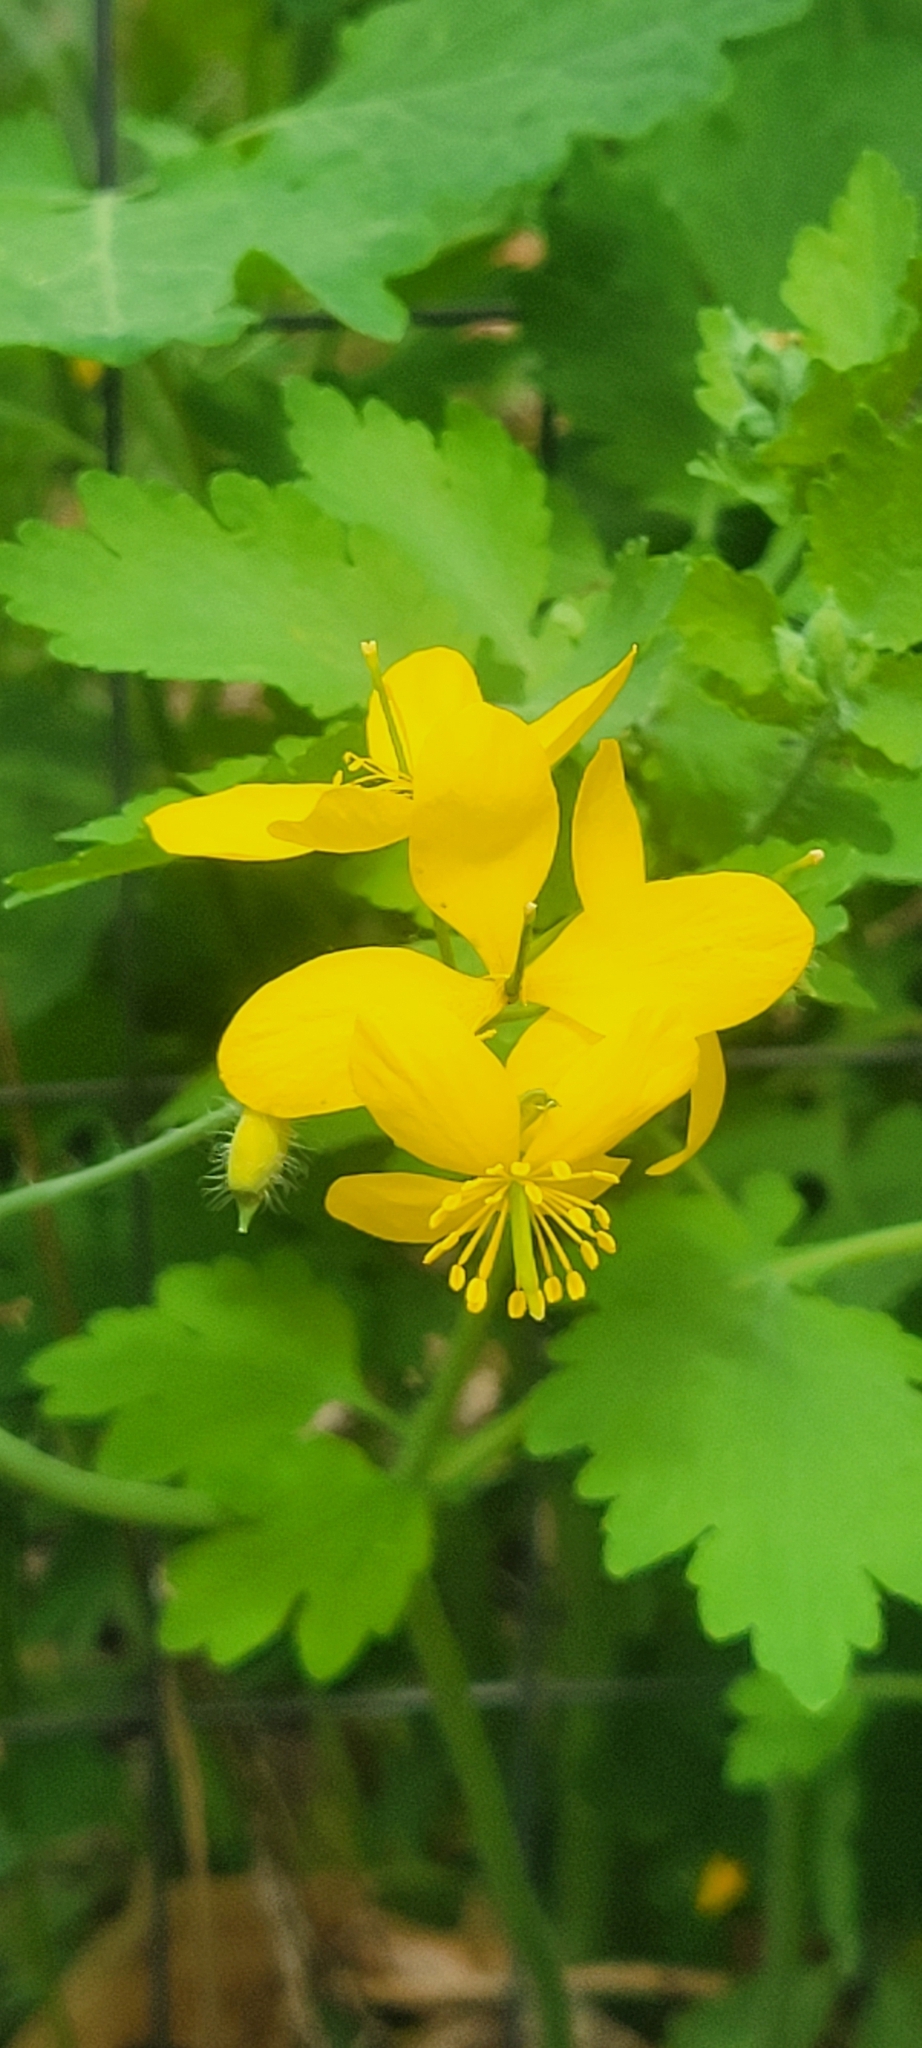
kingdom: Plantae
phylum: Tracheophyta
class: Magnoliopsida
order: Ranunculales
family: Papaveraceae
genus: Chelidonium
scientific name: Chelidonium majus
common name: Greater celandine
